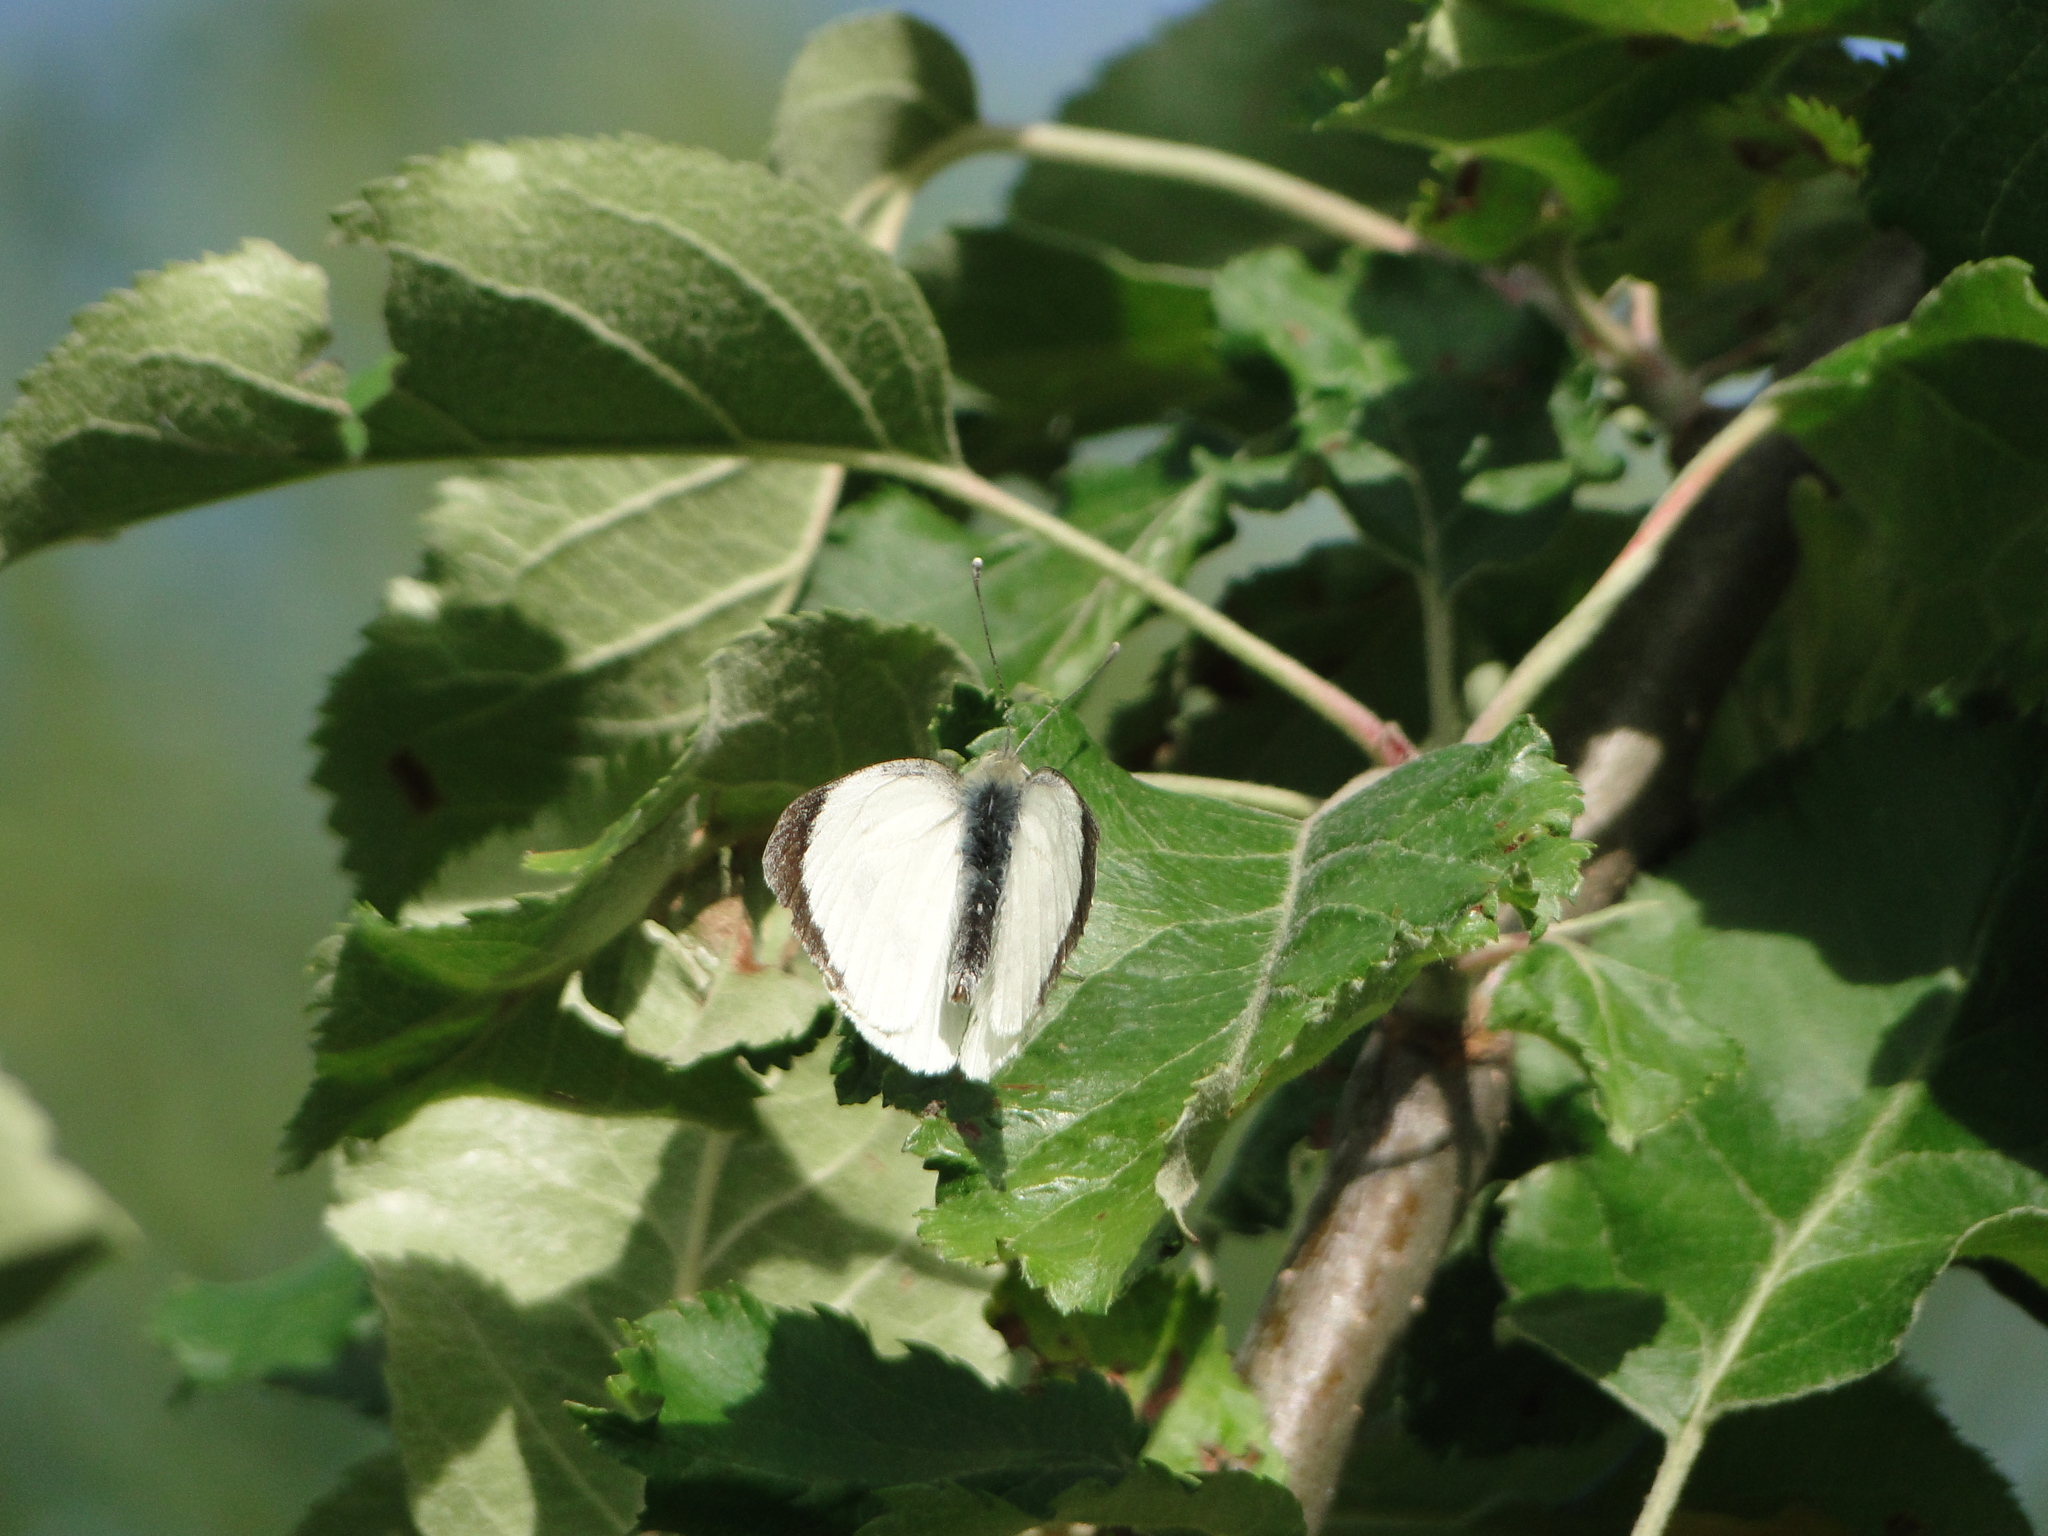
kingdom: Animalia
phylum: Arthropoda
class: Insecta
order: Lepidoptera
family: Pieridae
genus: Pieris
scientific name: Pieris brassicae
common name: Large white
